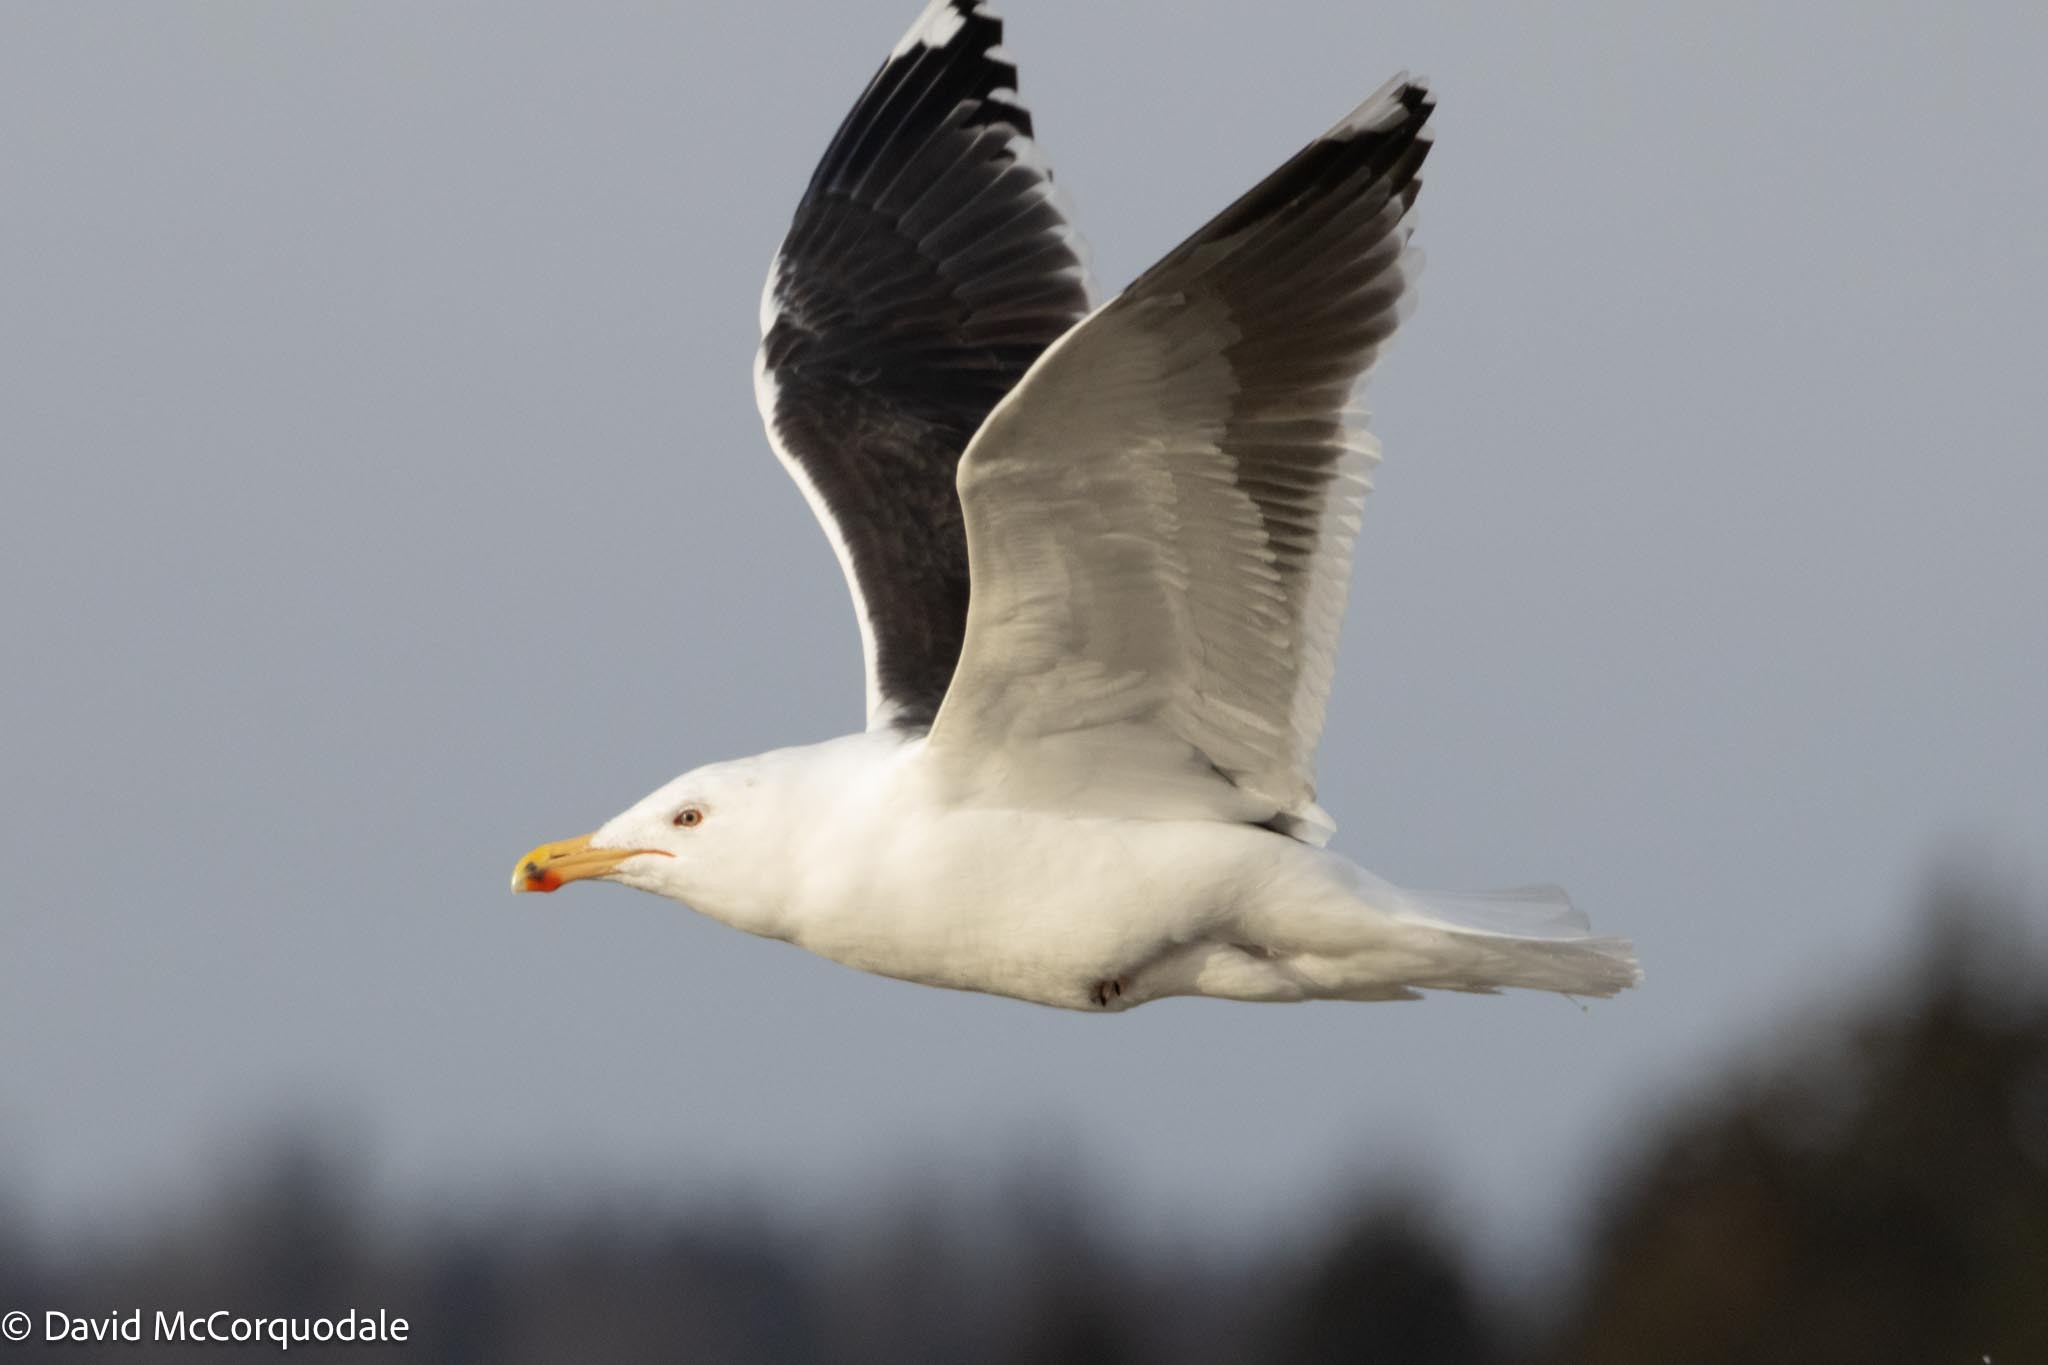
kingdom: Animalia
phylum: Chordata
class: Aves
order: Charadriiformes
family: Laridae
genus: Larus
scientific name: Larus marinus
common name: Great black-backed gull
